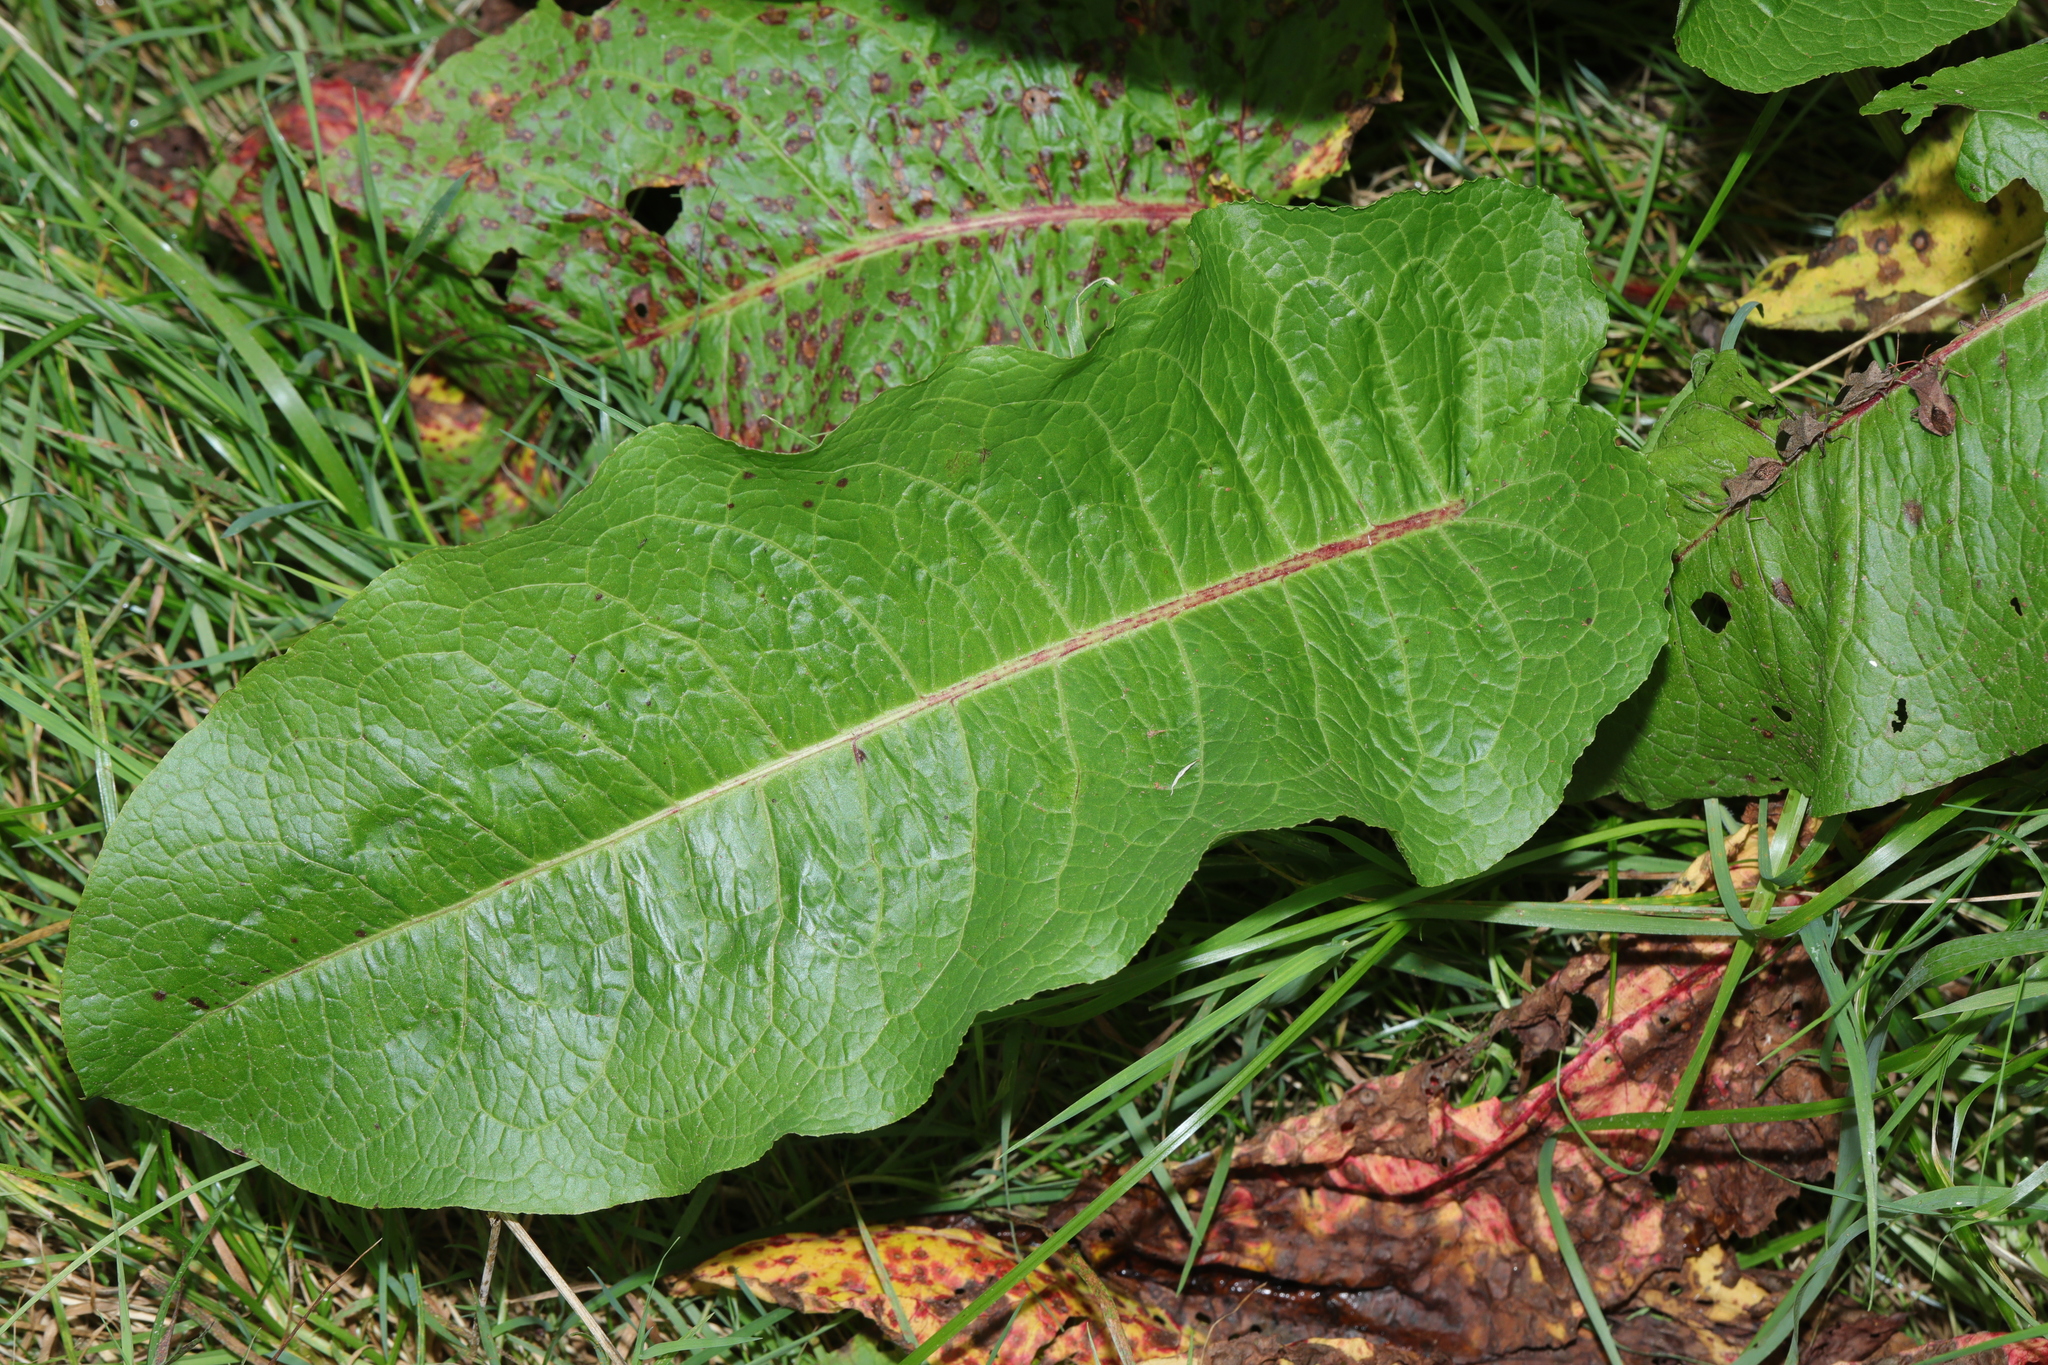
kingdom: Plantae
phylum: Tracheophyta
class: Magnoliopsida
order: Caryophyllales
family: Polygonaceae
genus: Rumex
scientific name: Rumex obtusifolius
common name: Bitter dock
